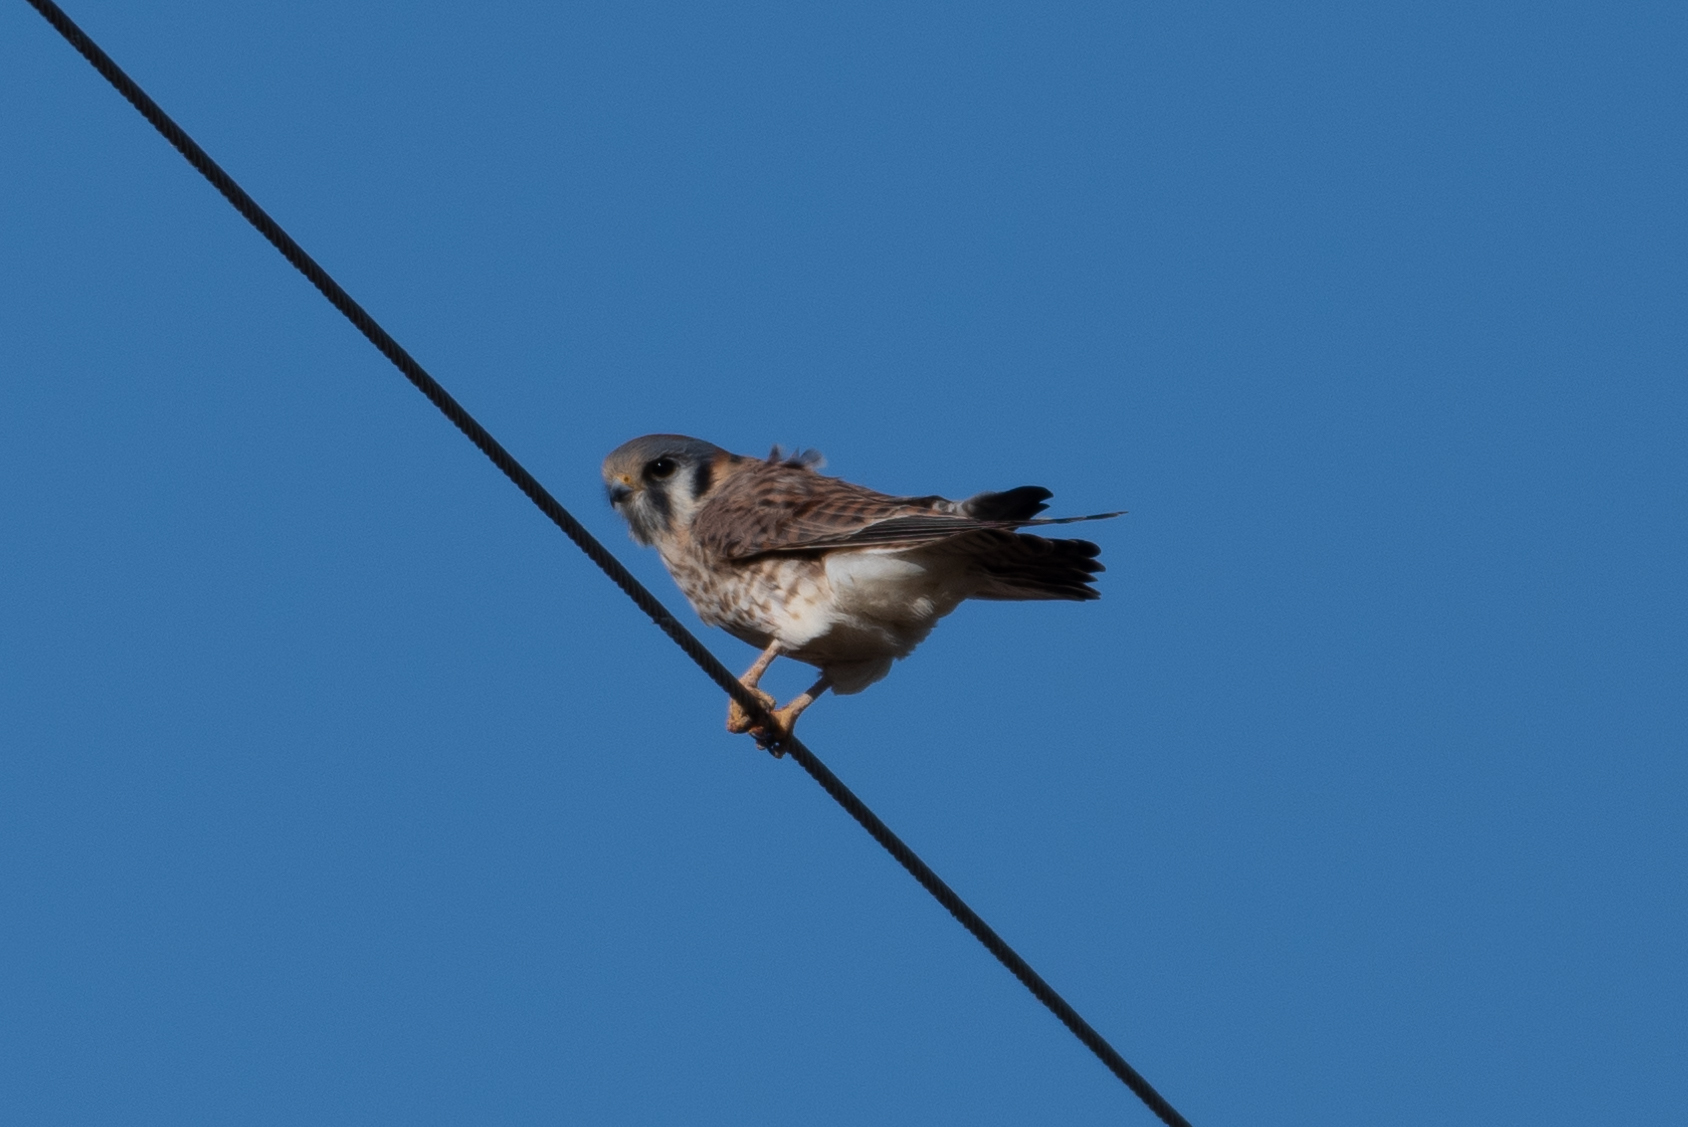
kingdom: Animalia
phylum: Chordata
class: Aves
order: Falconiformes
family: Falconidae
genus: Falco
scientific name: Falco sparverius
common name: American kestrel
